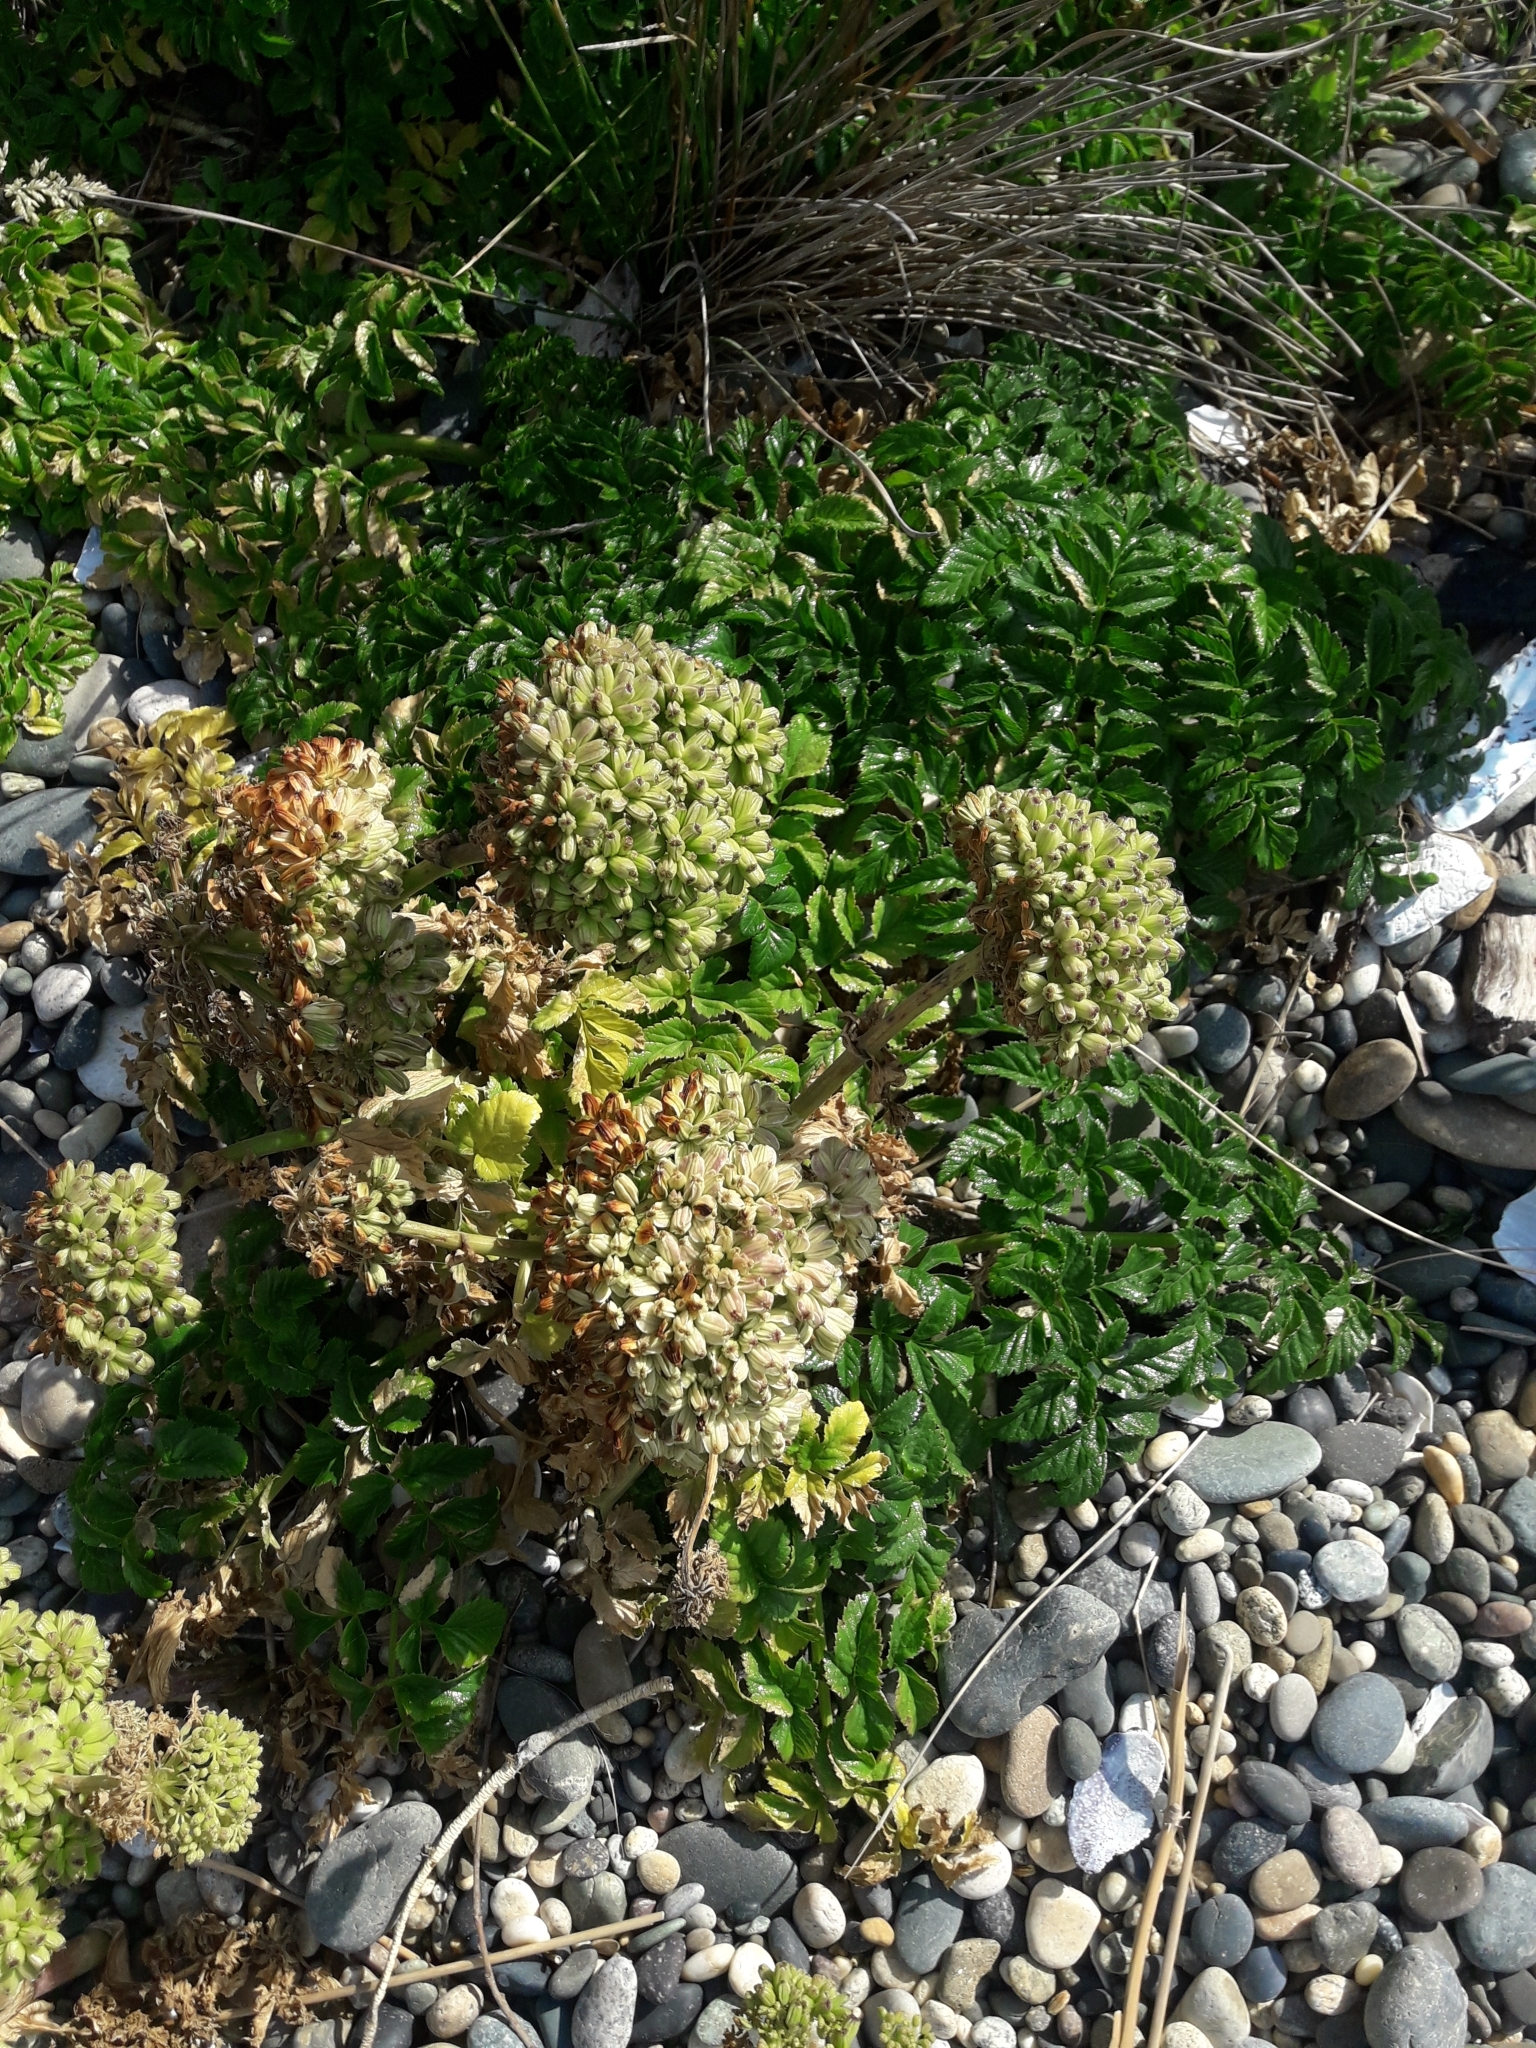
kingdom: Plantae
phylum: Tracheophyta
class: Magnoliopsida
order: Apiales
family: Apiaceae
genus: Angelica
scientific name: Angelica pachycarpa
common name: Portuguese angelica
